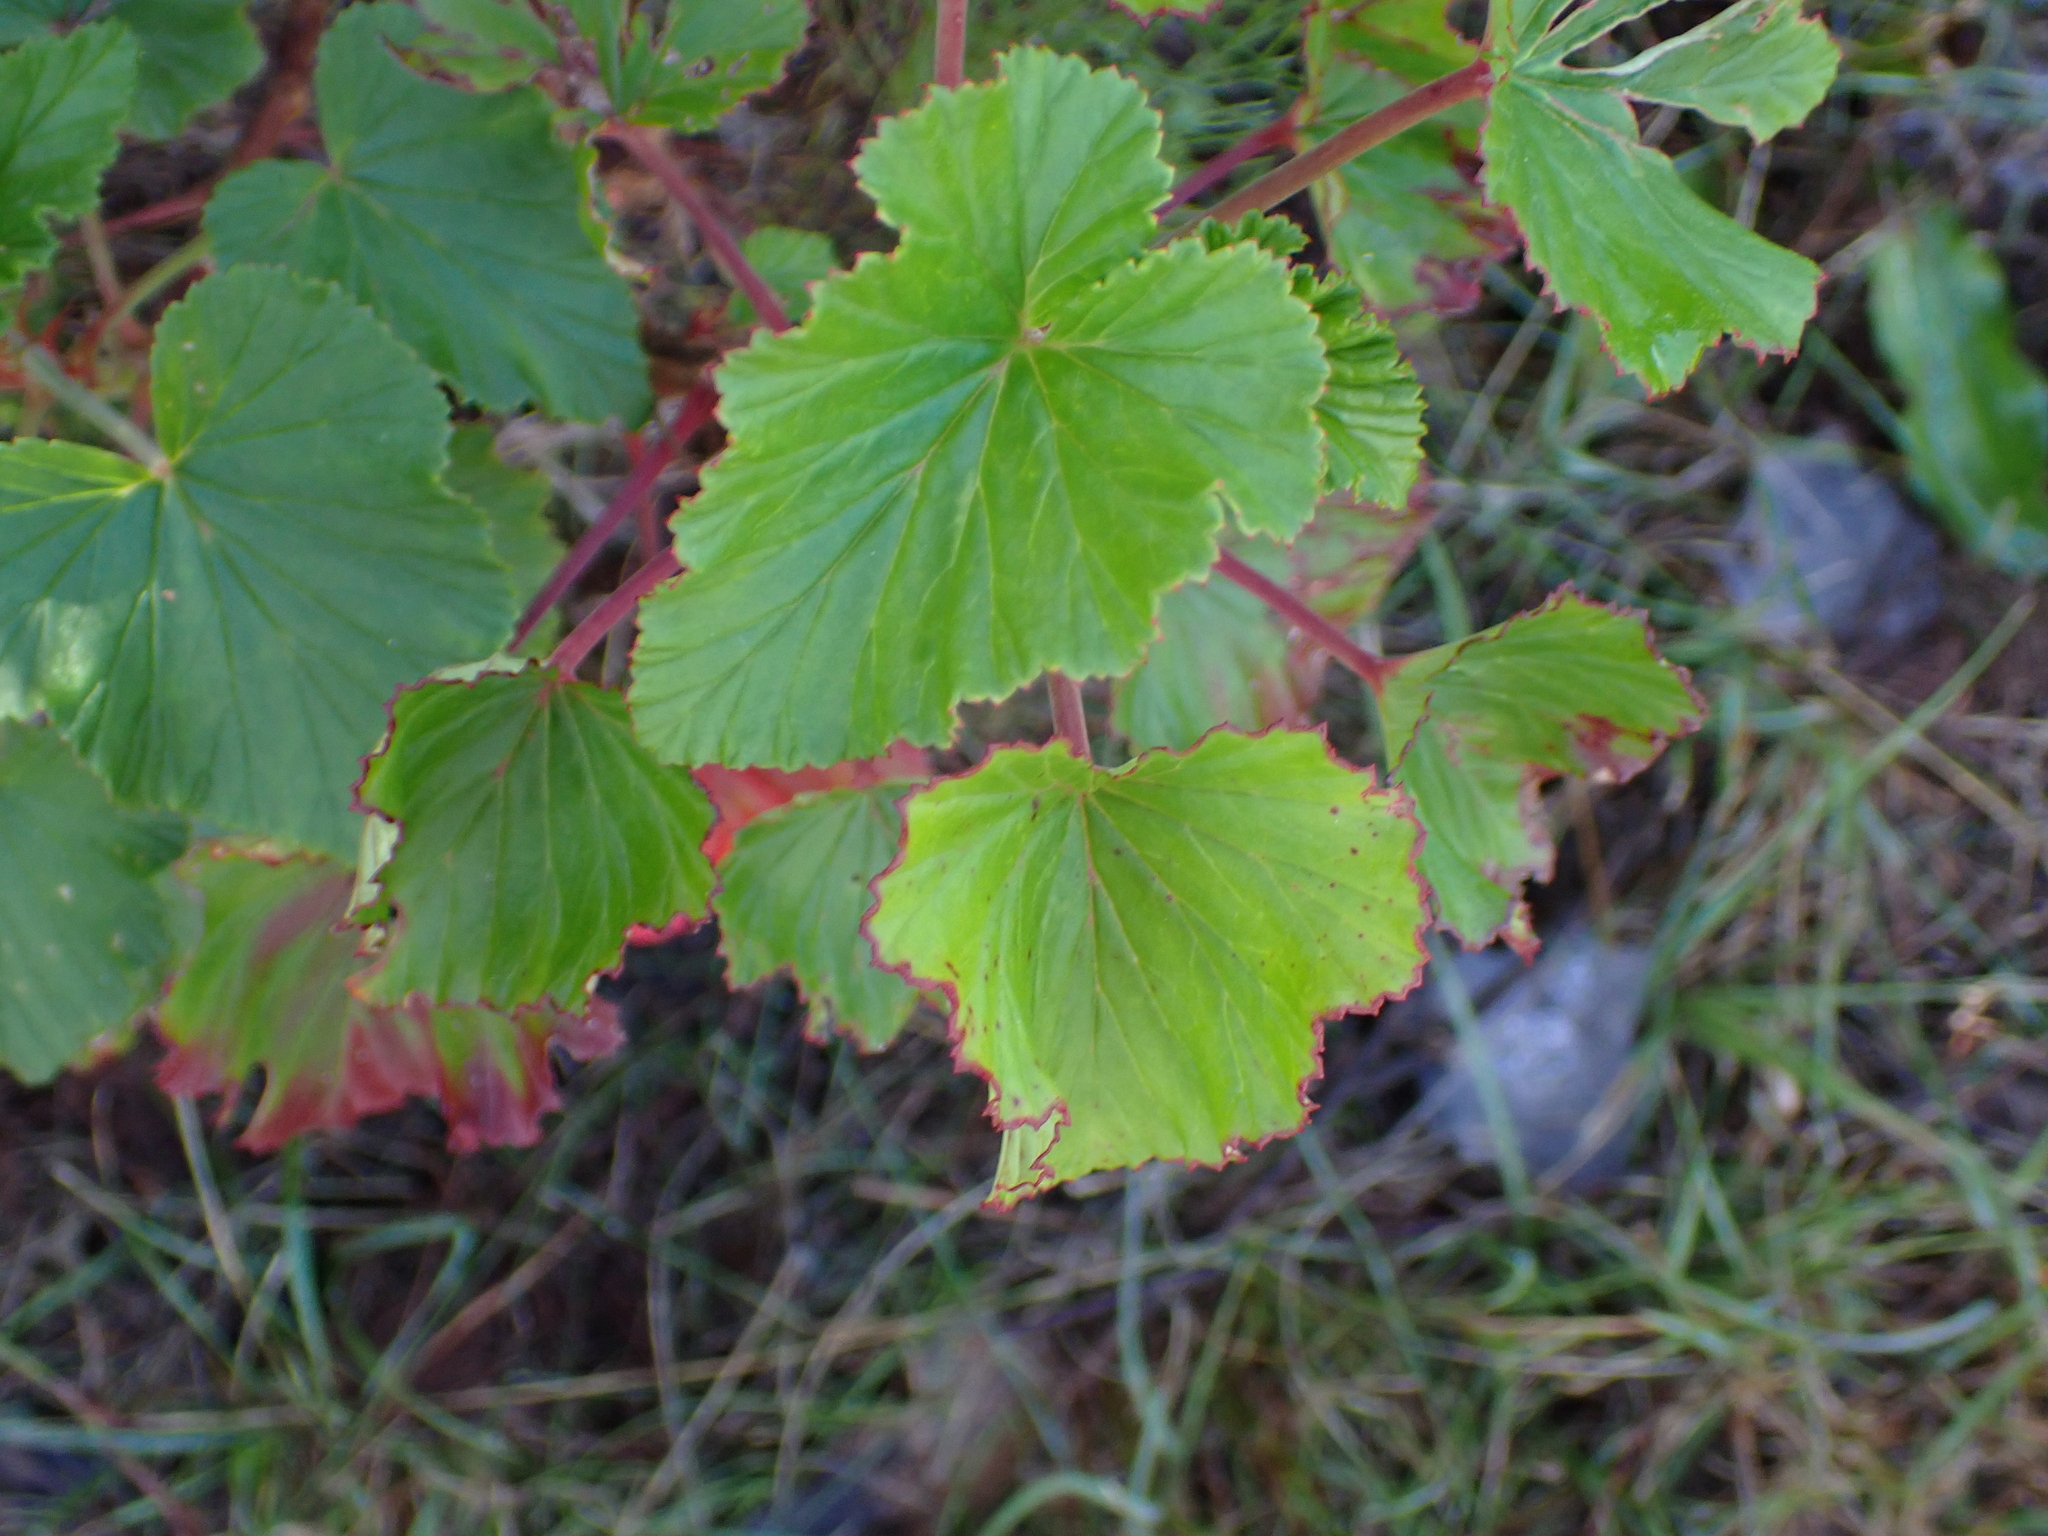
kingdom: Plantae
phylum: Tracheophyta
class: Magnoliopsida
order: Geraniales
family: Geraniaceae
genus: Pelargonium
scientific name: Pelargonium cordifolium
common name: Heart-leaf pelargonium
